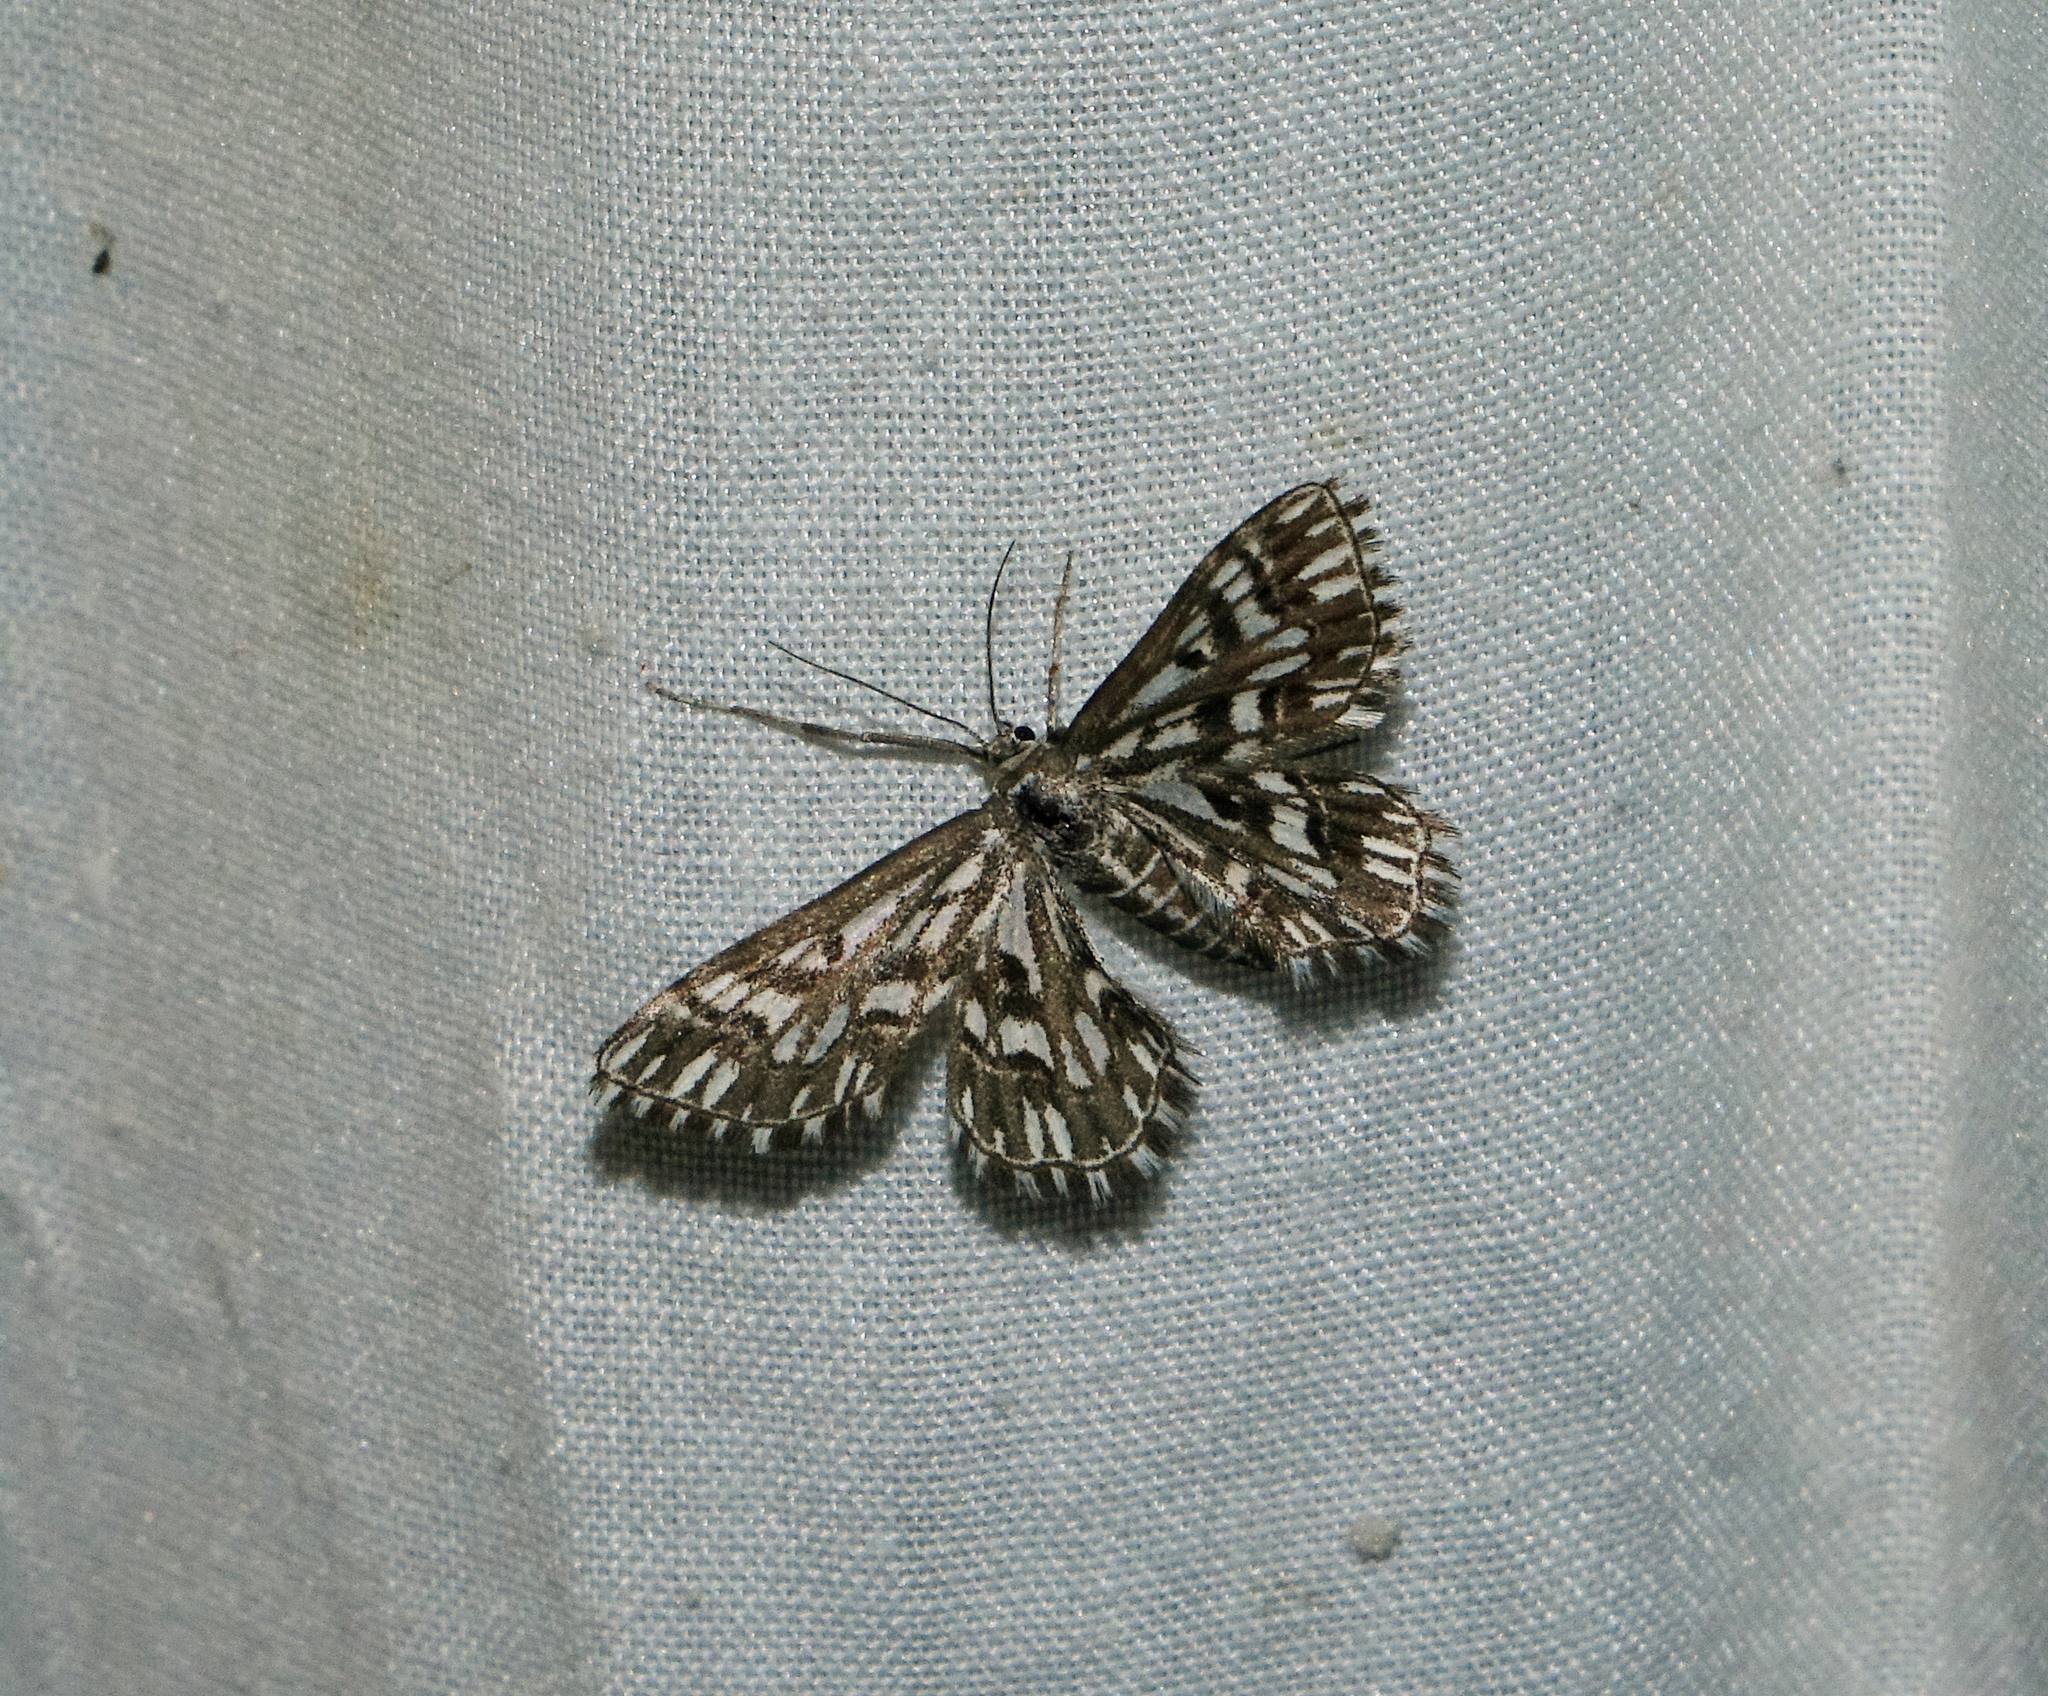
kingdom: Animalia
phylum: Arthropoda
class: Insecta
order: Lepidoptera
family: Geometridae
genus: Cinglis
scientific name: Cinglis humifusaria
